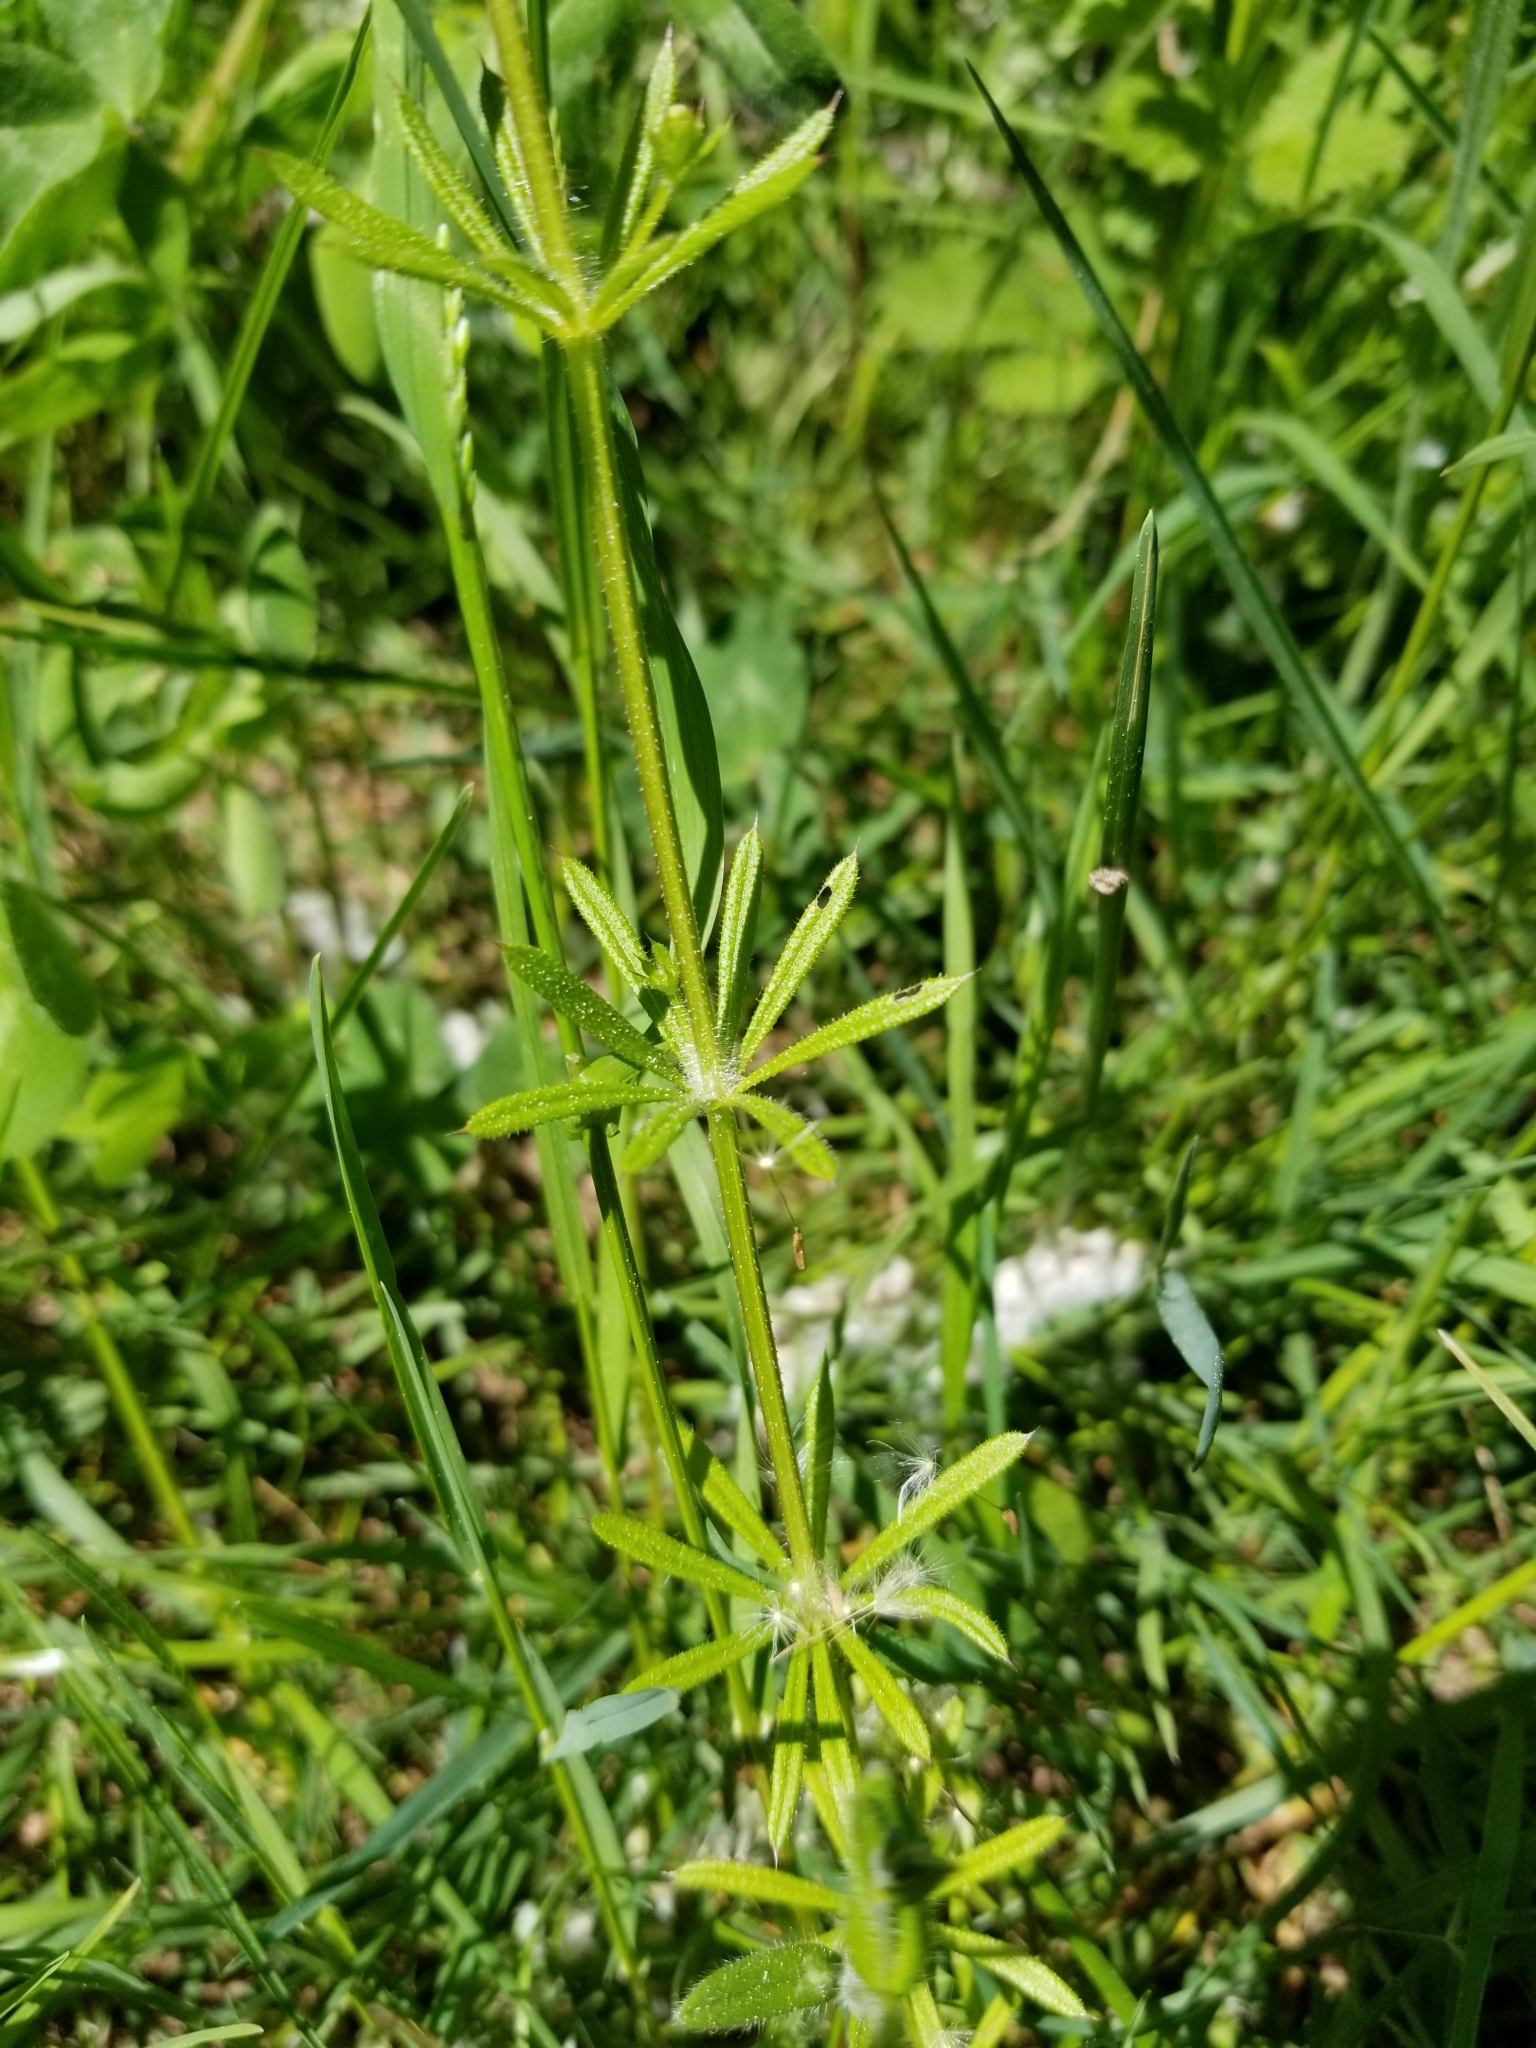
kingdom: Plantae
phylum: Tracheophyta
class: Magnoliopsida
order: Gentianales
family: Rubiaceae
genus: Galium
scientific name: Galium aparine
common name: Cleavers
